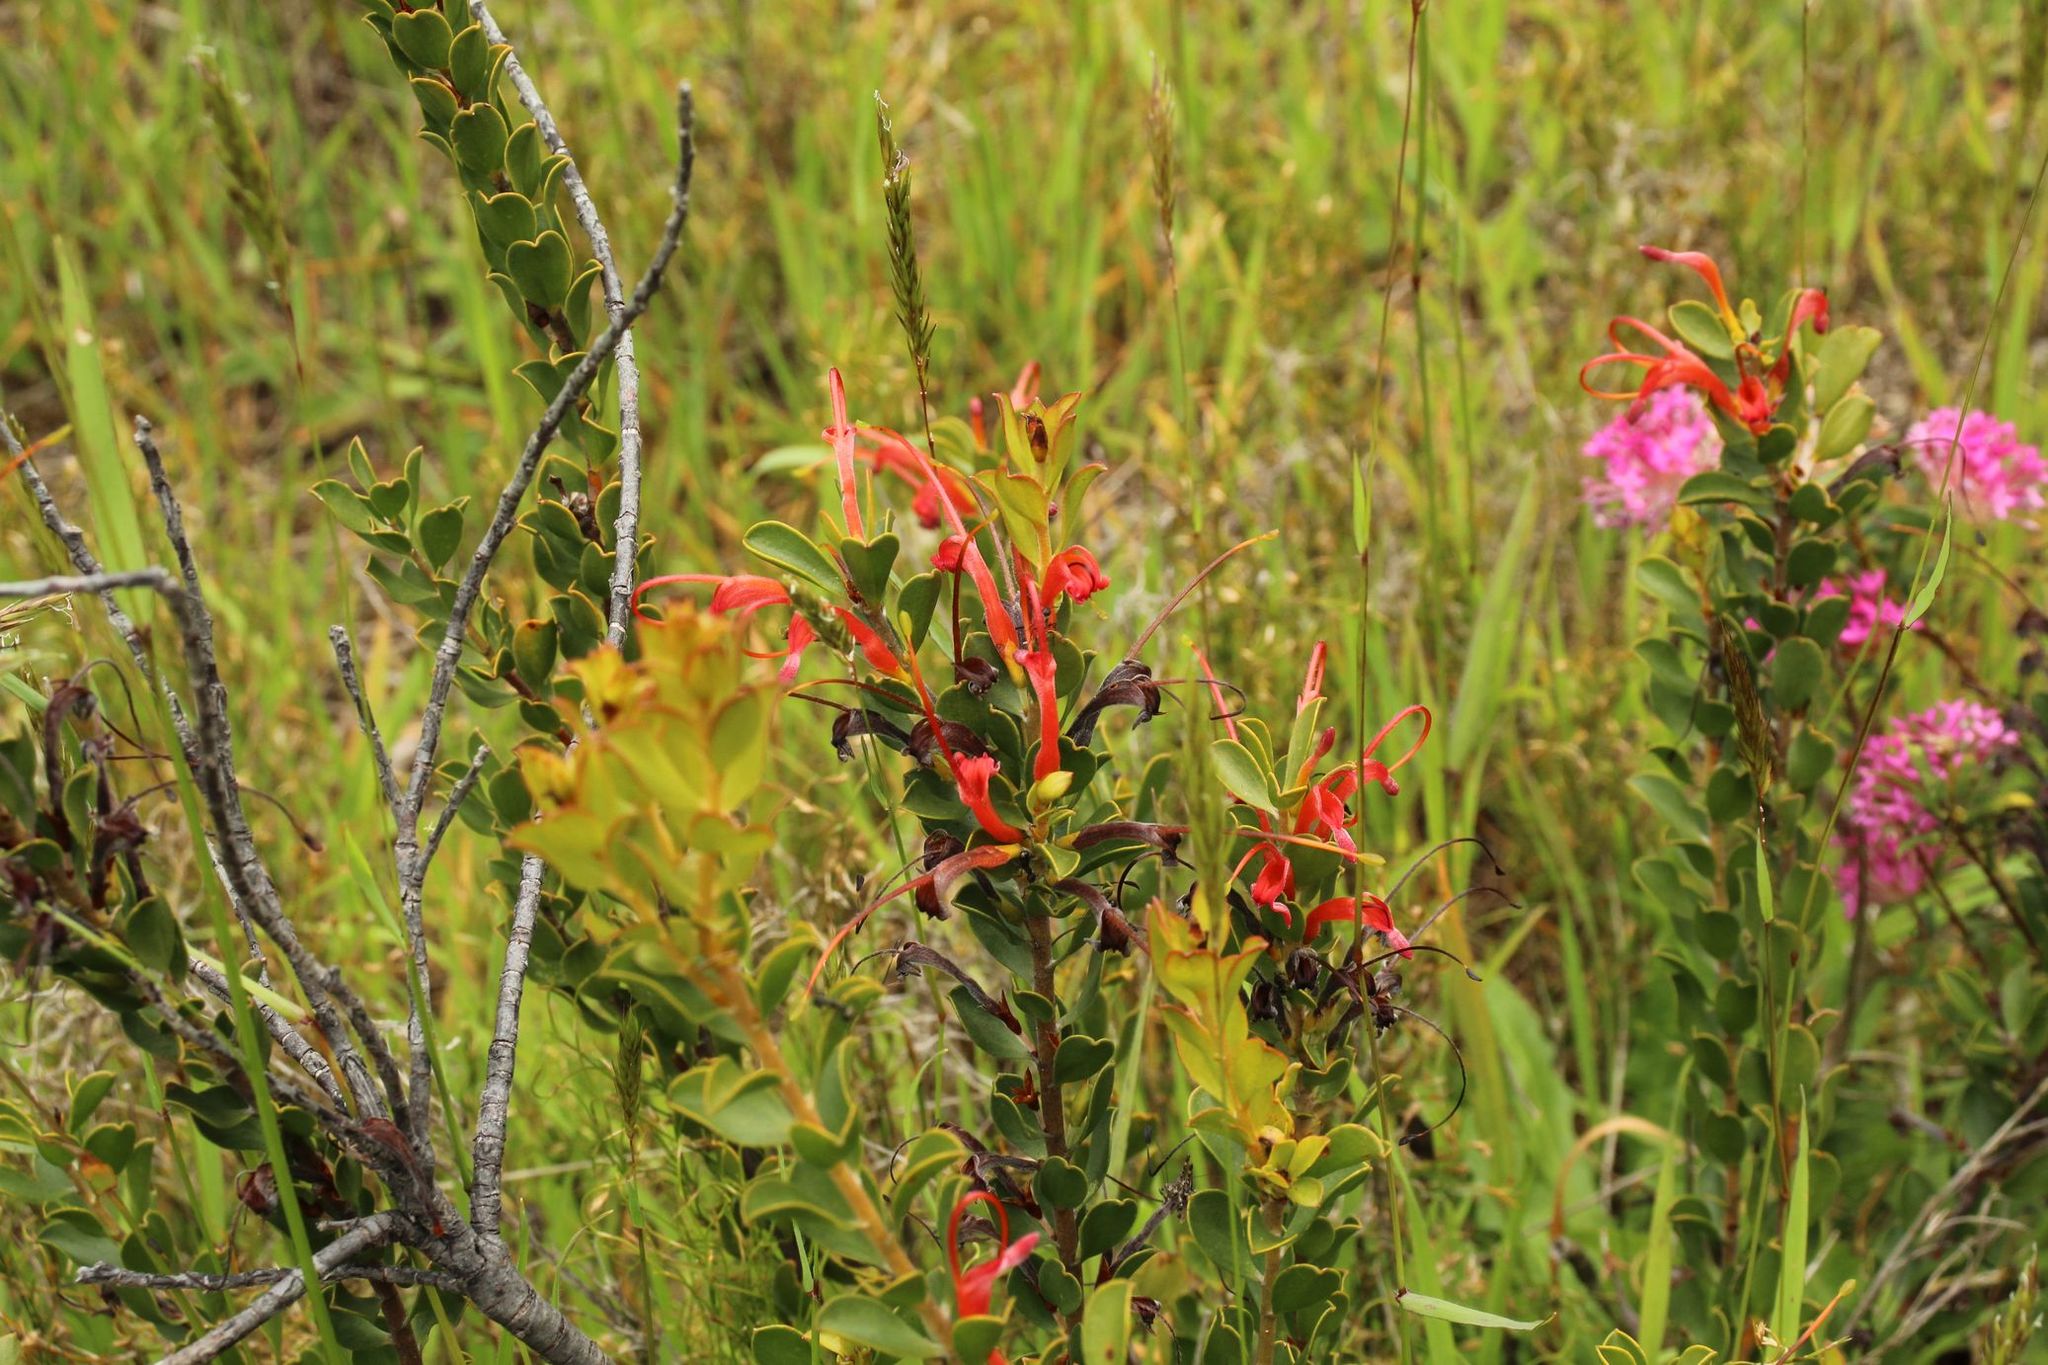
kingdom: Plantae
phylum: Tracheophyta
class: Magnoliopsida
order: Proteales
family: Proteaceae
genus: Adenanthos
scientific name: Adenanthos obovatus
